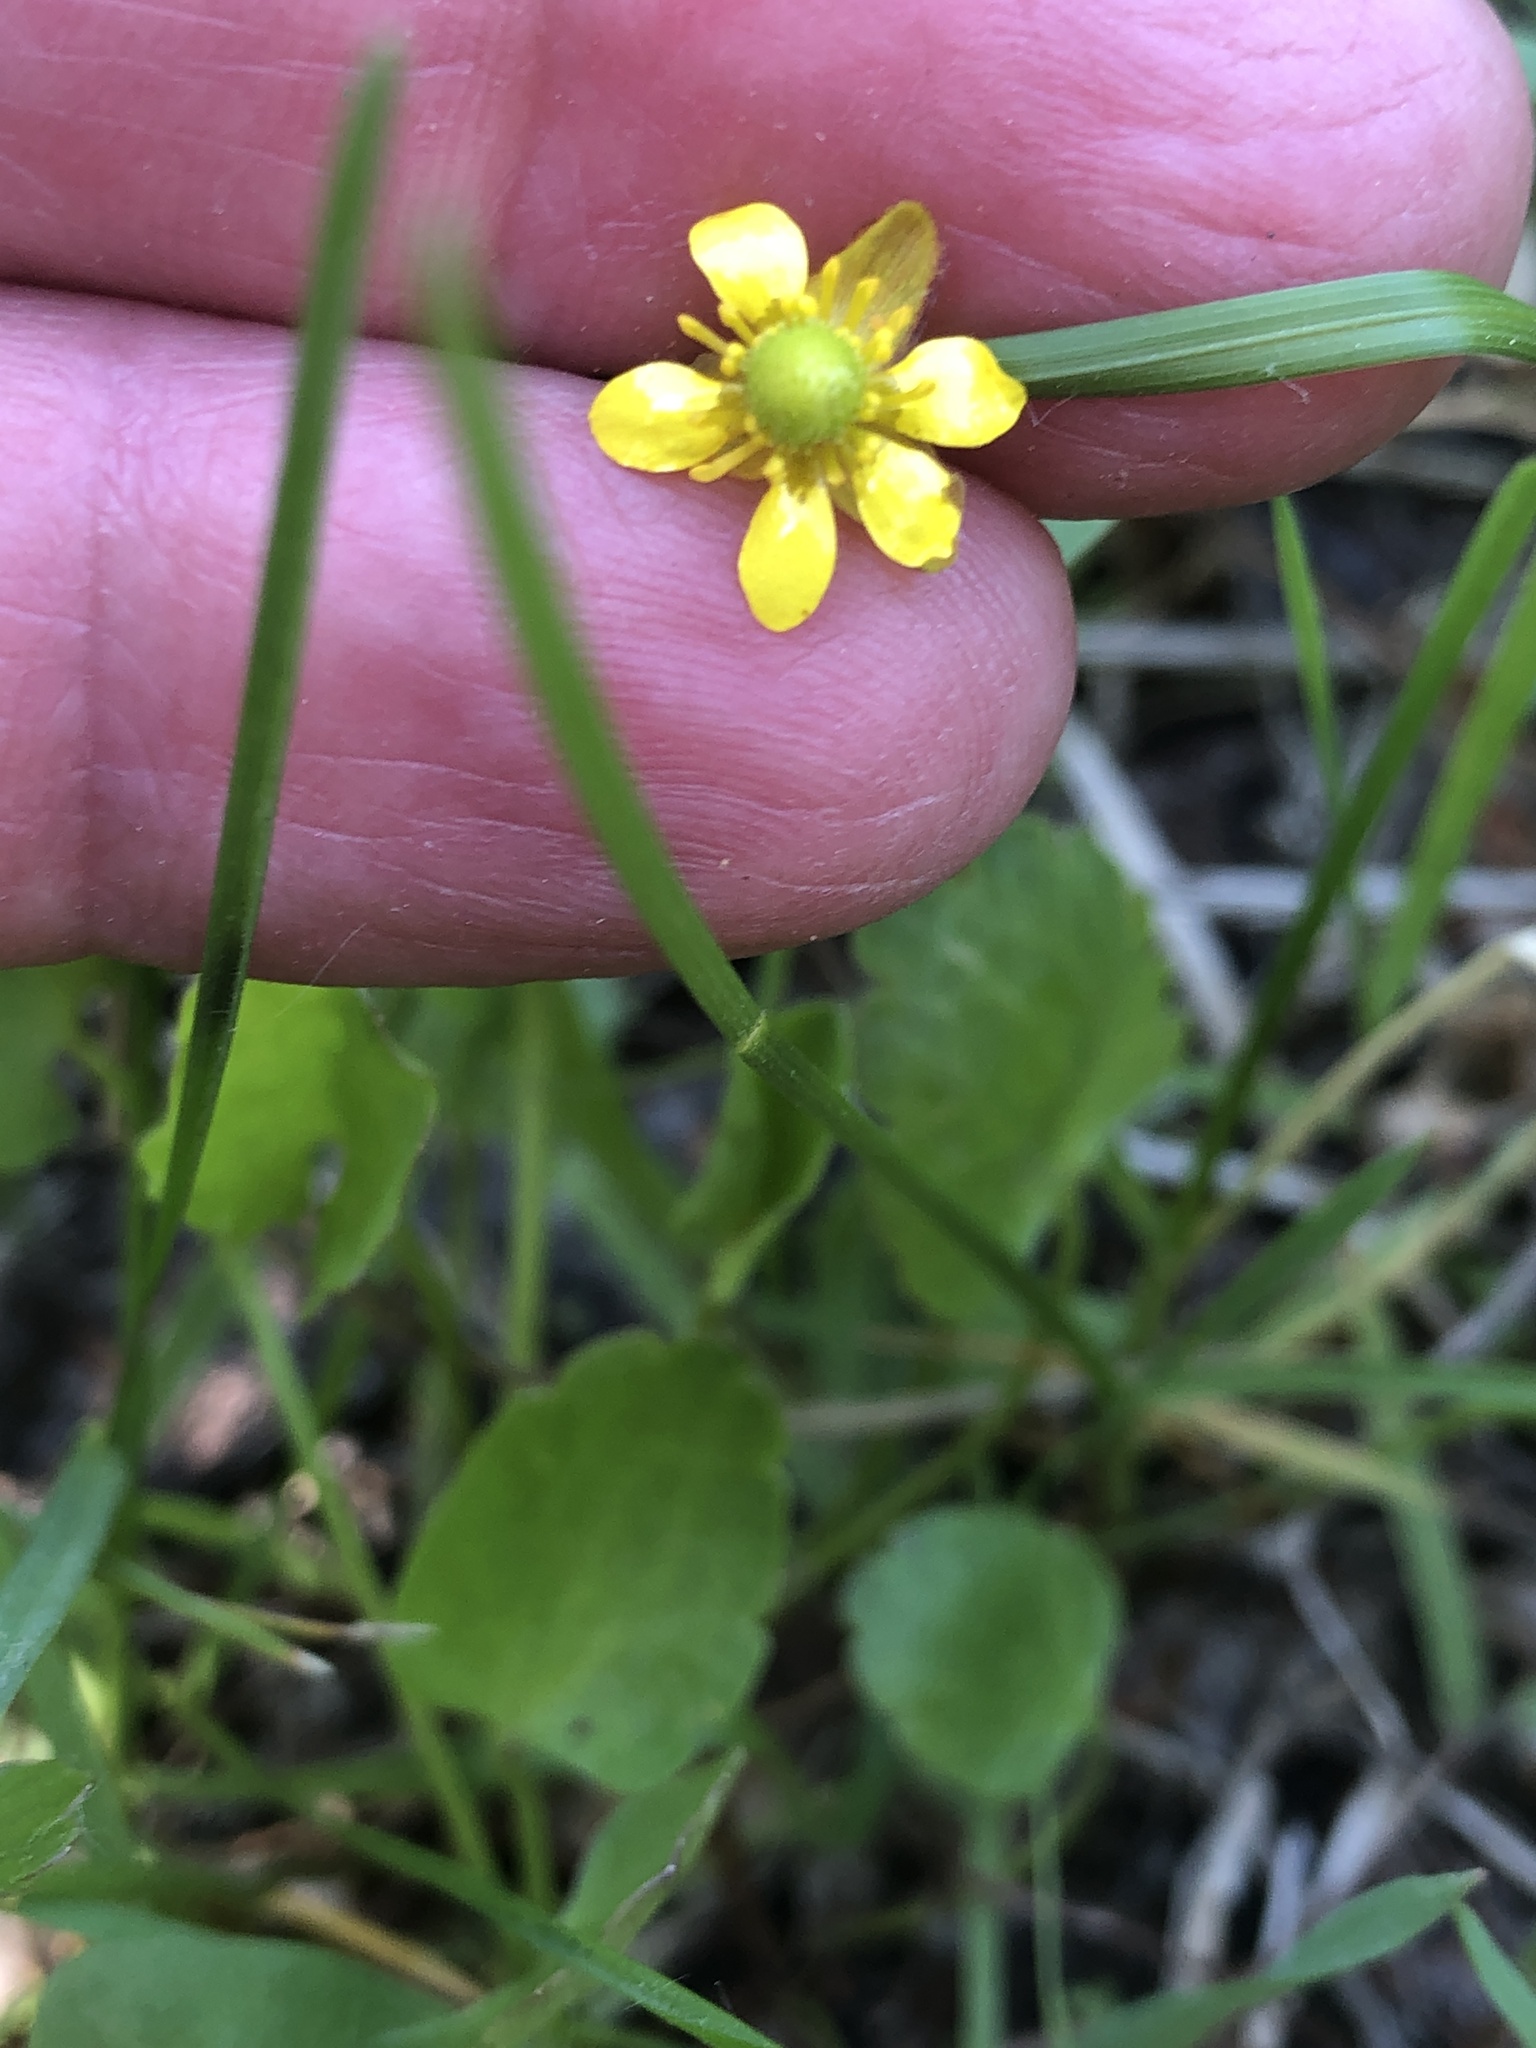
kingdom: Plantae
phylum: Tracheophyta
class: Magnoliopsida
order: Ranunculales
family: Ranunculaceae
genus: Halerpestes
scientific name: Halerpestes cymbalaria
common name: Seaside crowfoot
